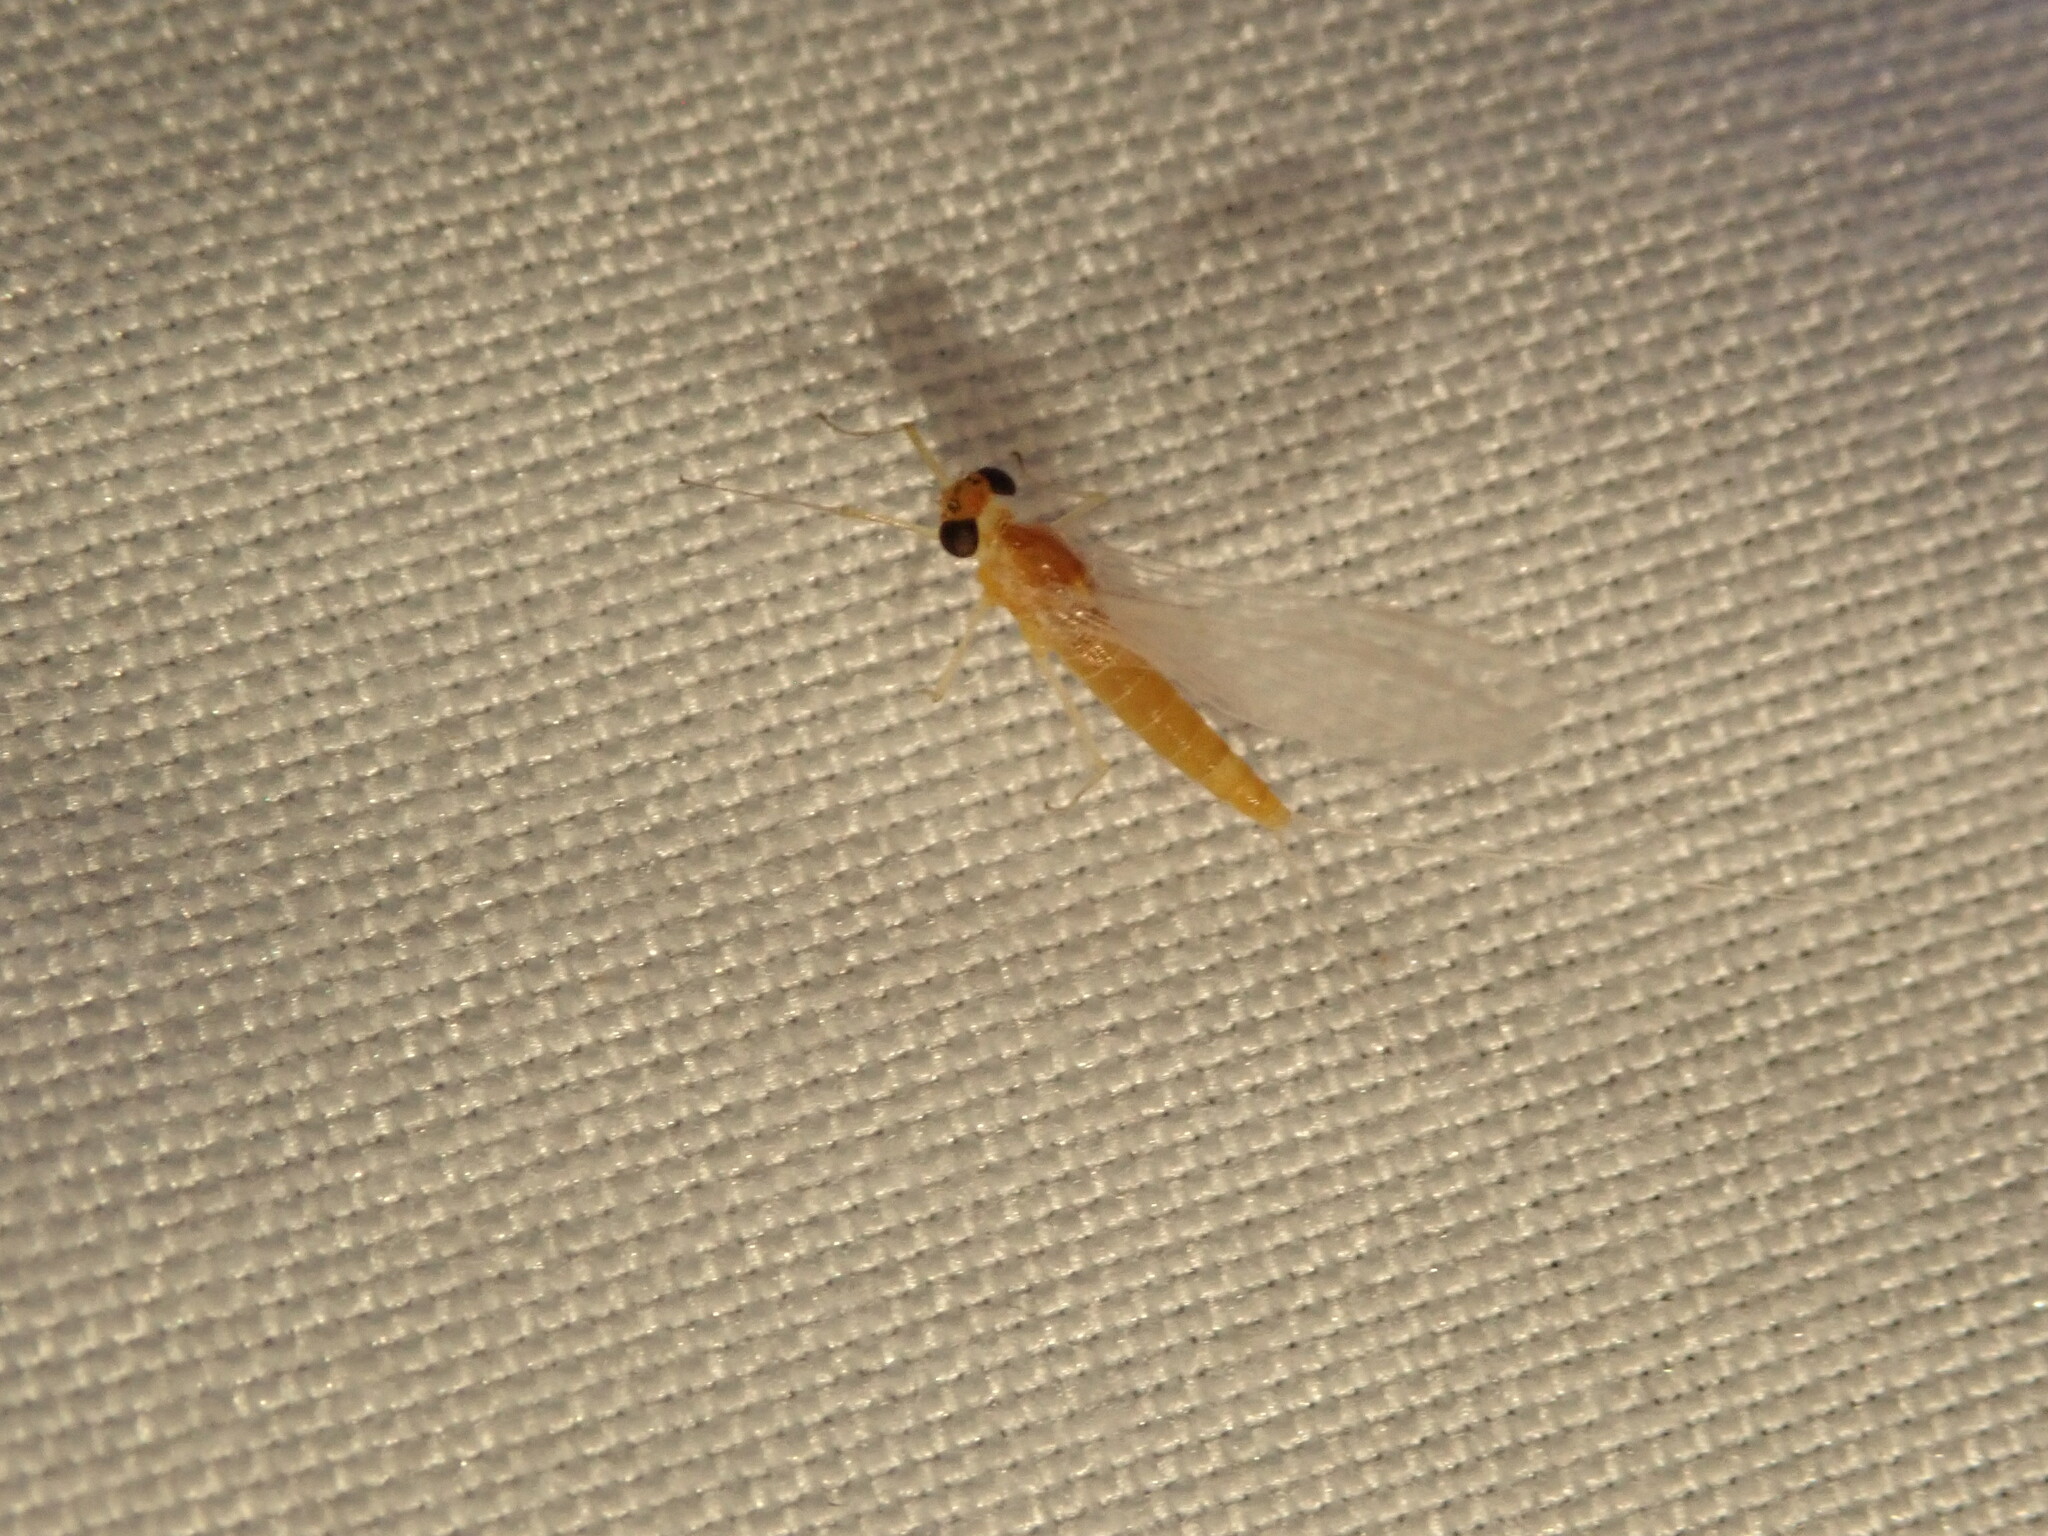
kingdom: Animalia
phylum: Arthropoda
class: Insecta
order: Ephemeroptera
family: Heptageniidae
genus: Nixe
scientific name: Nixe inconspicua
